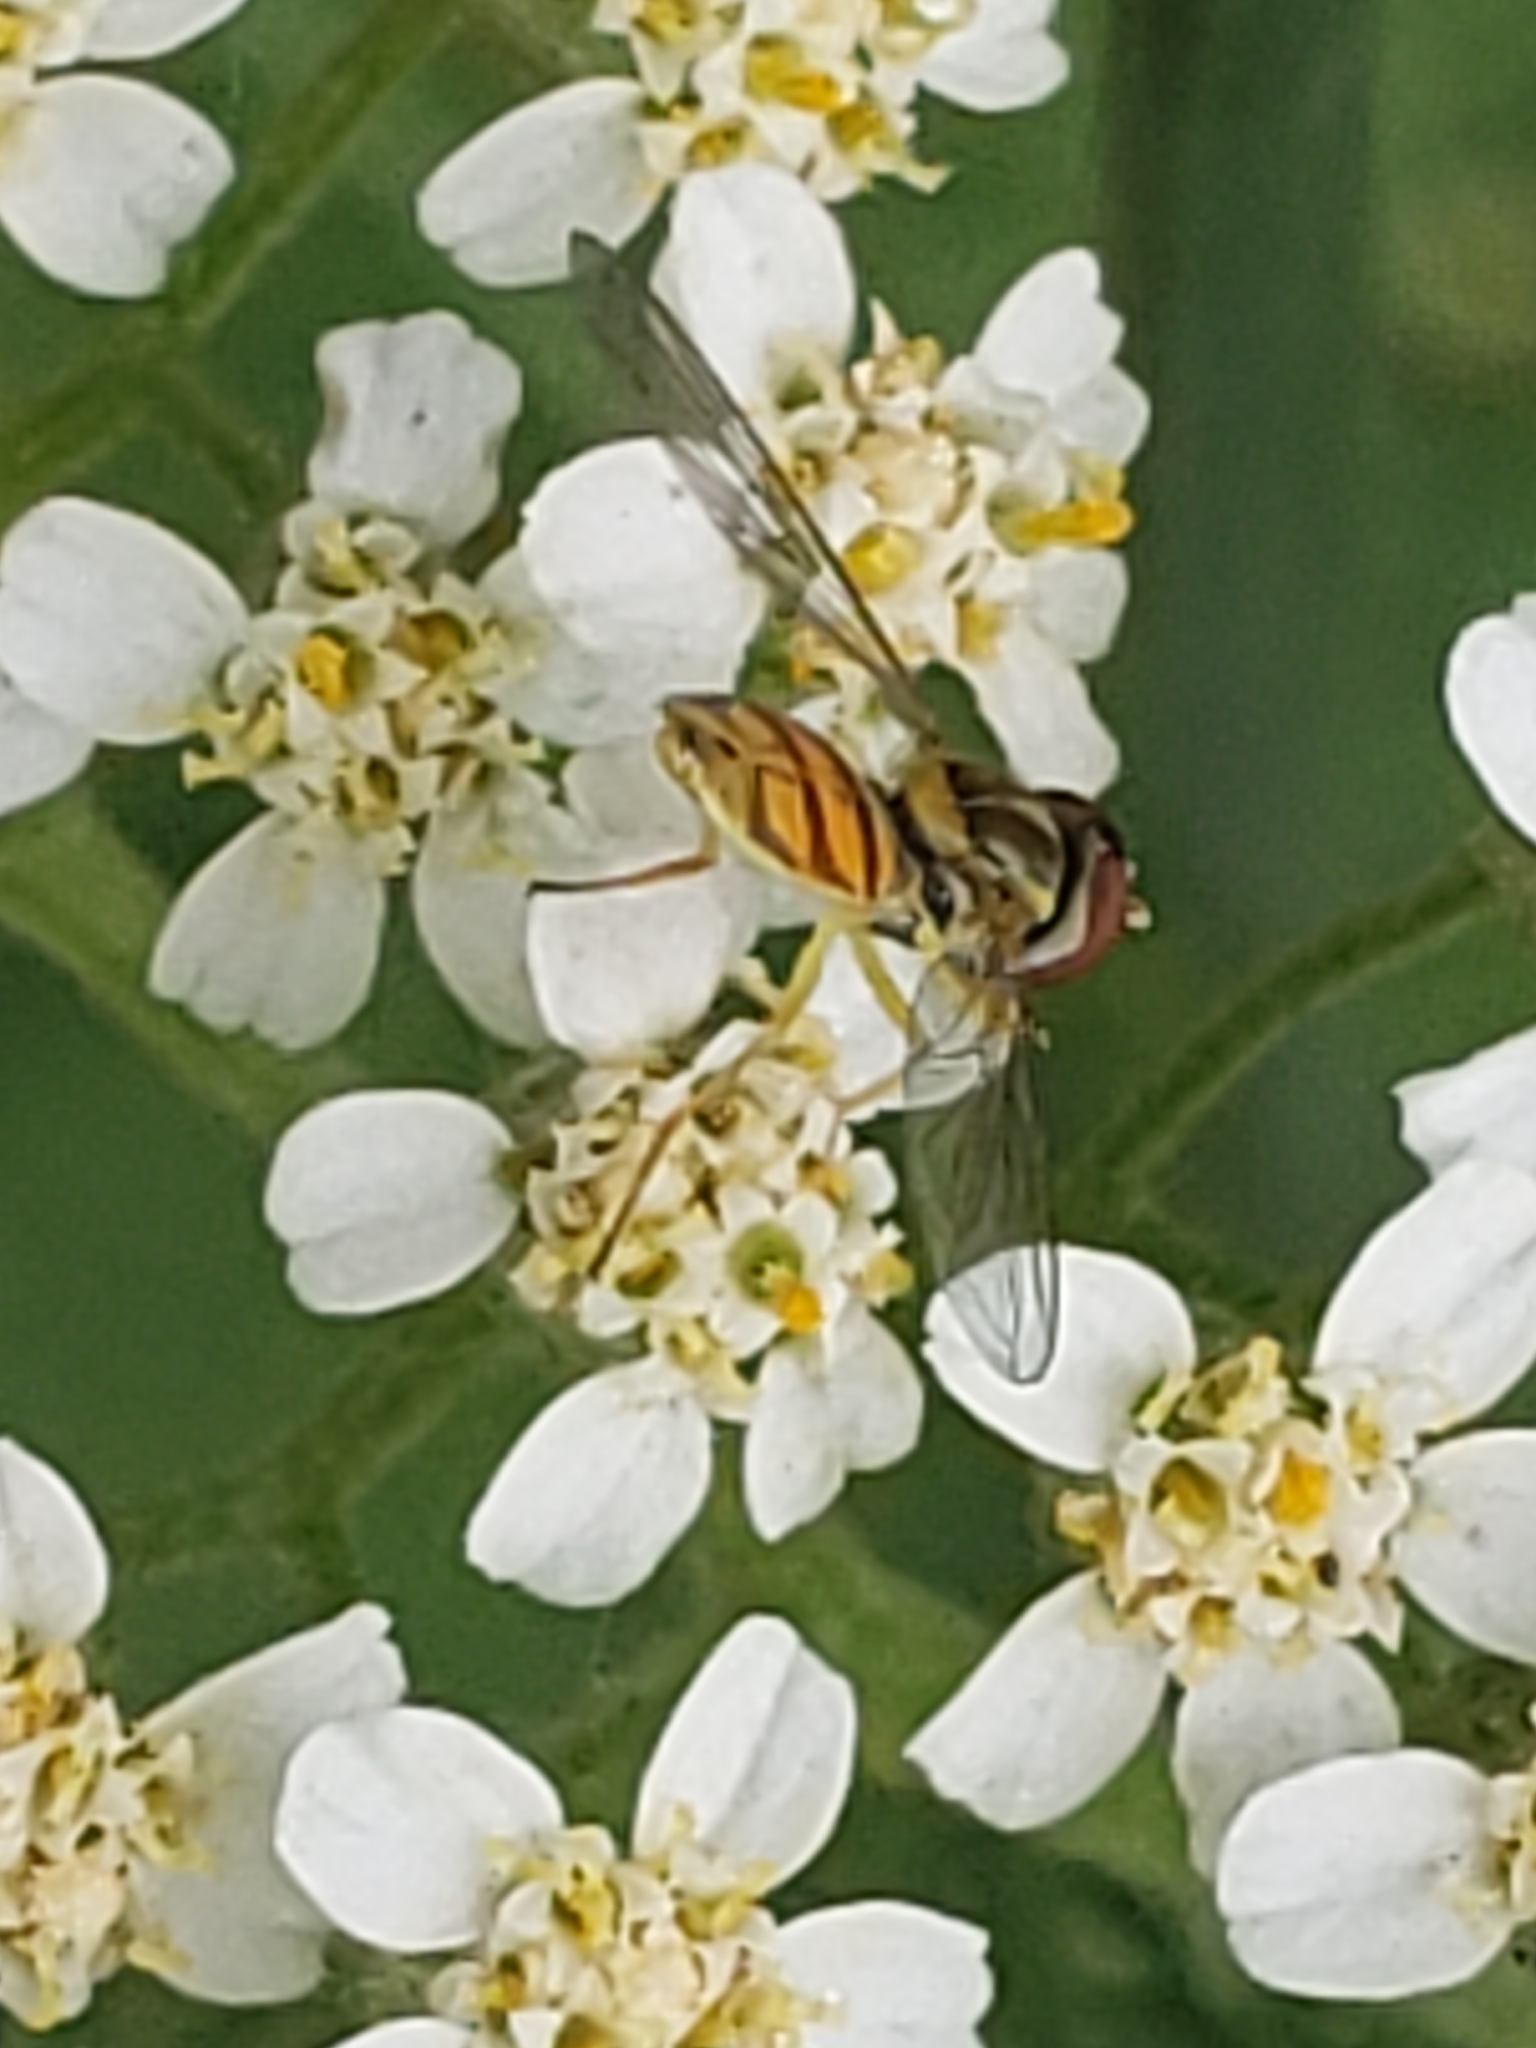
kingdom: Animalia
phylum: Arthropoda
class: Insecta
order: Diptera
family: Syrphidae
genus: Toxomerus
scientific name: Toxomerus marginatus
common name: Syrphid fly
